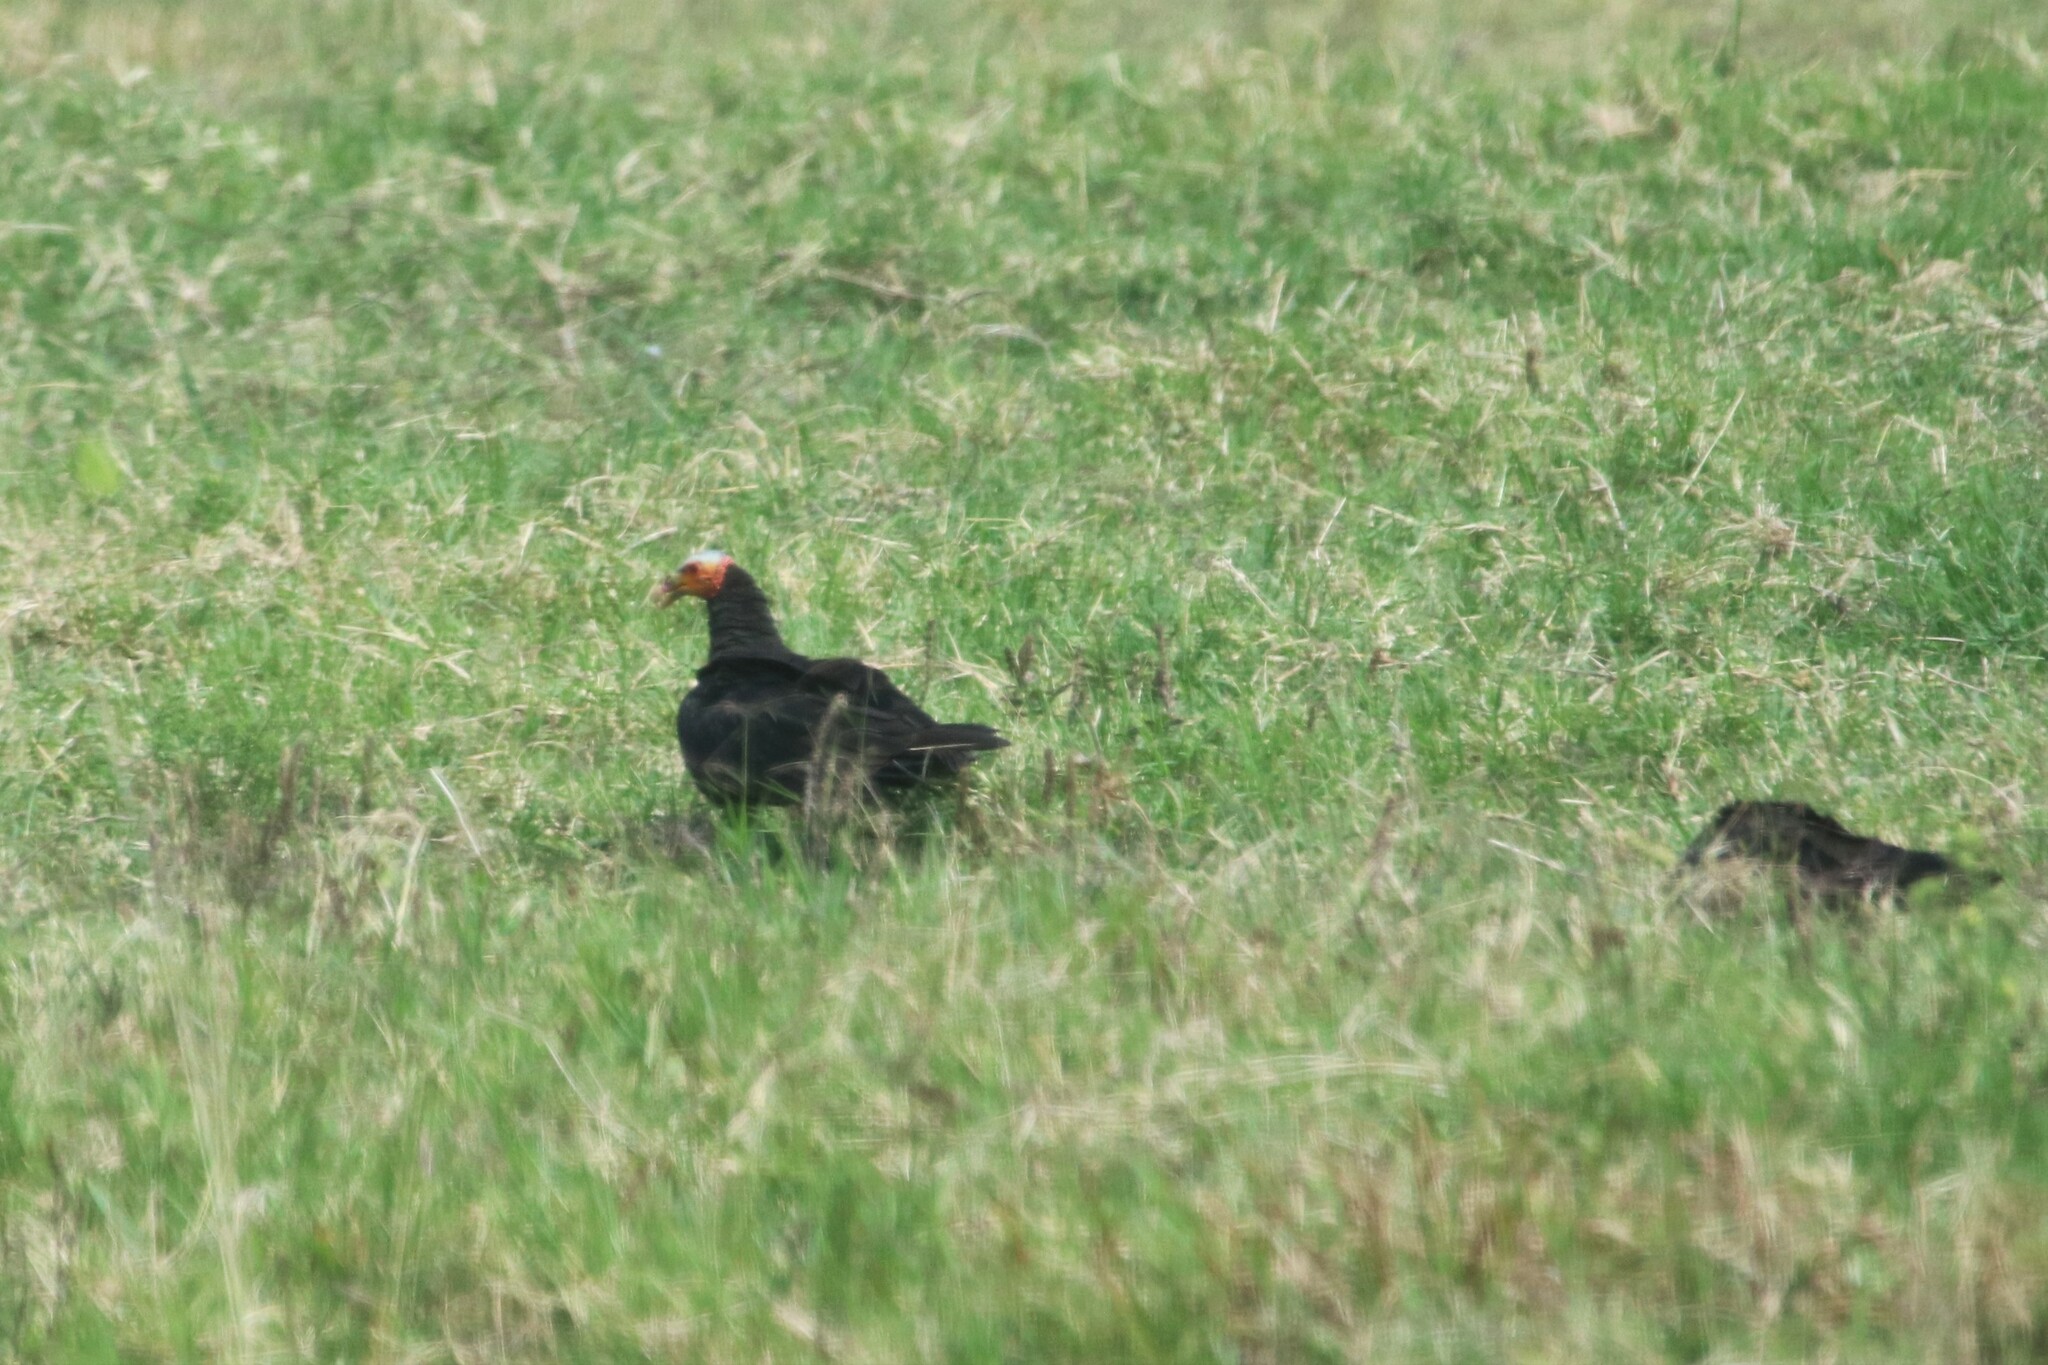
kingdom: Animalia
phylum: Chordata
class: Aves
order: Accipitriformes
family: Cathartidae
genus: Cathartes
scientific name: Cathartes burrovianus
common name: Lesser yellow-headed vulture
